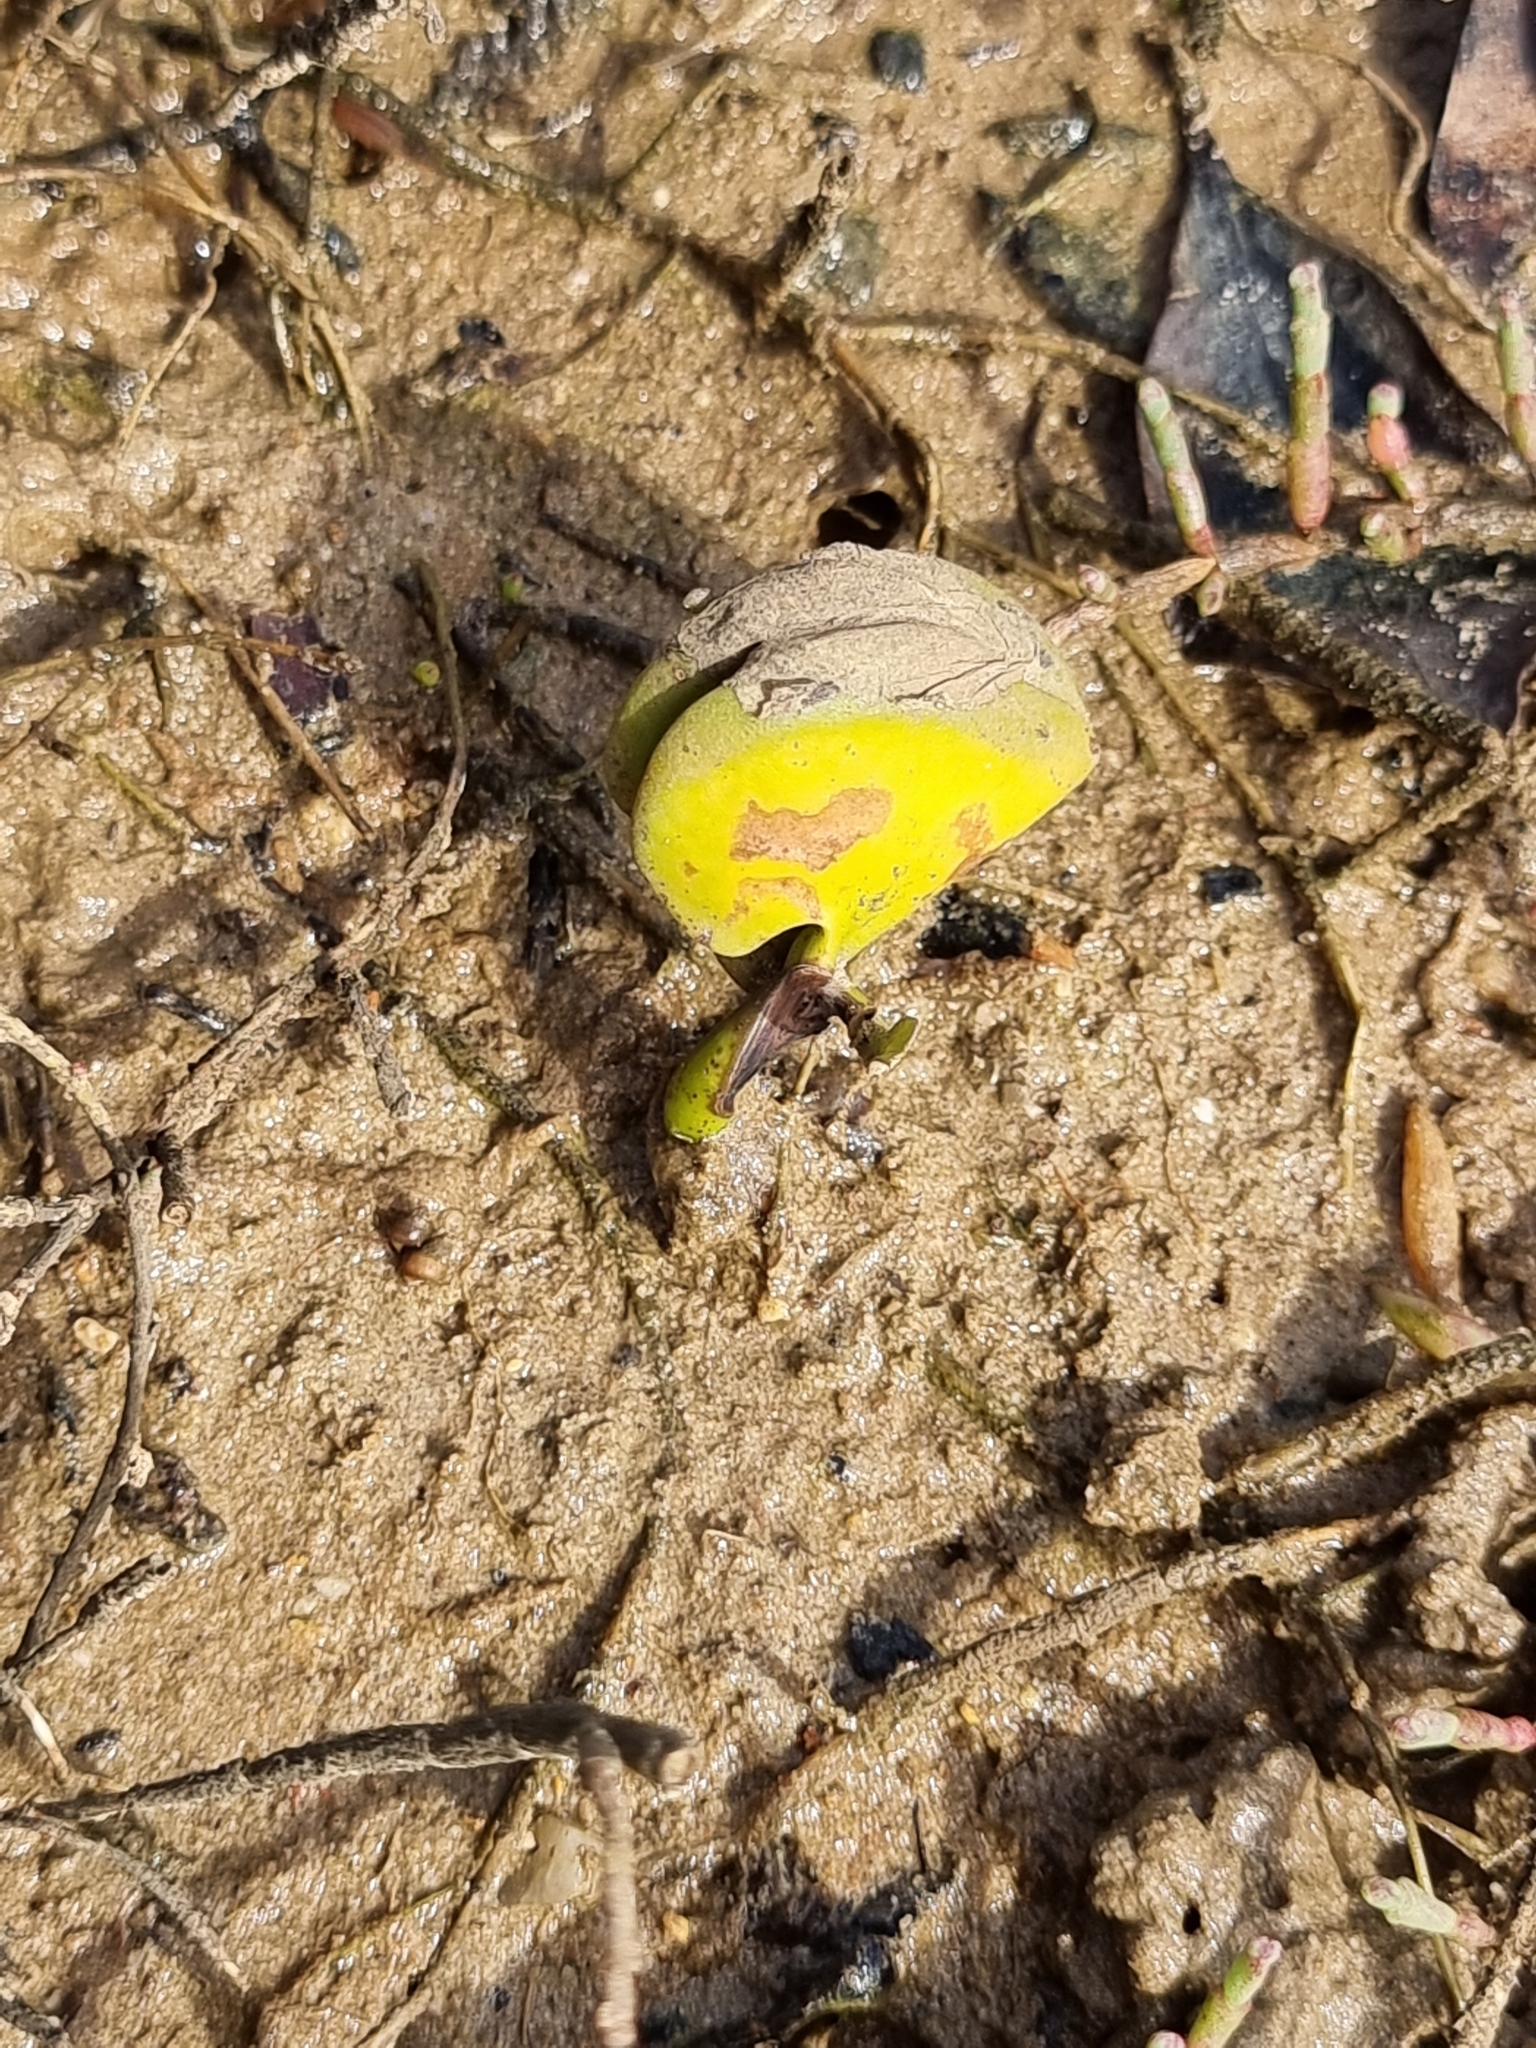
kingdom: Plantae
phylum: Tracheophyta
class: Magnoliopsida
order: Lamiales
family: Acanthaceae
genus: Avicennia
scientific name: Avicennia marina
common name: Gray mangrove
